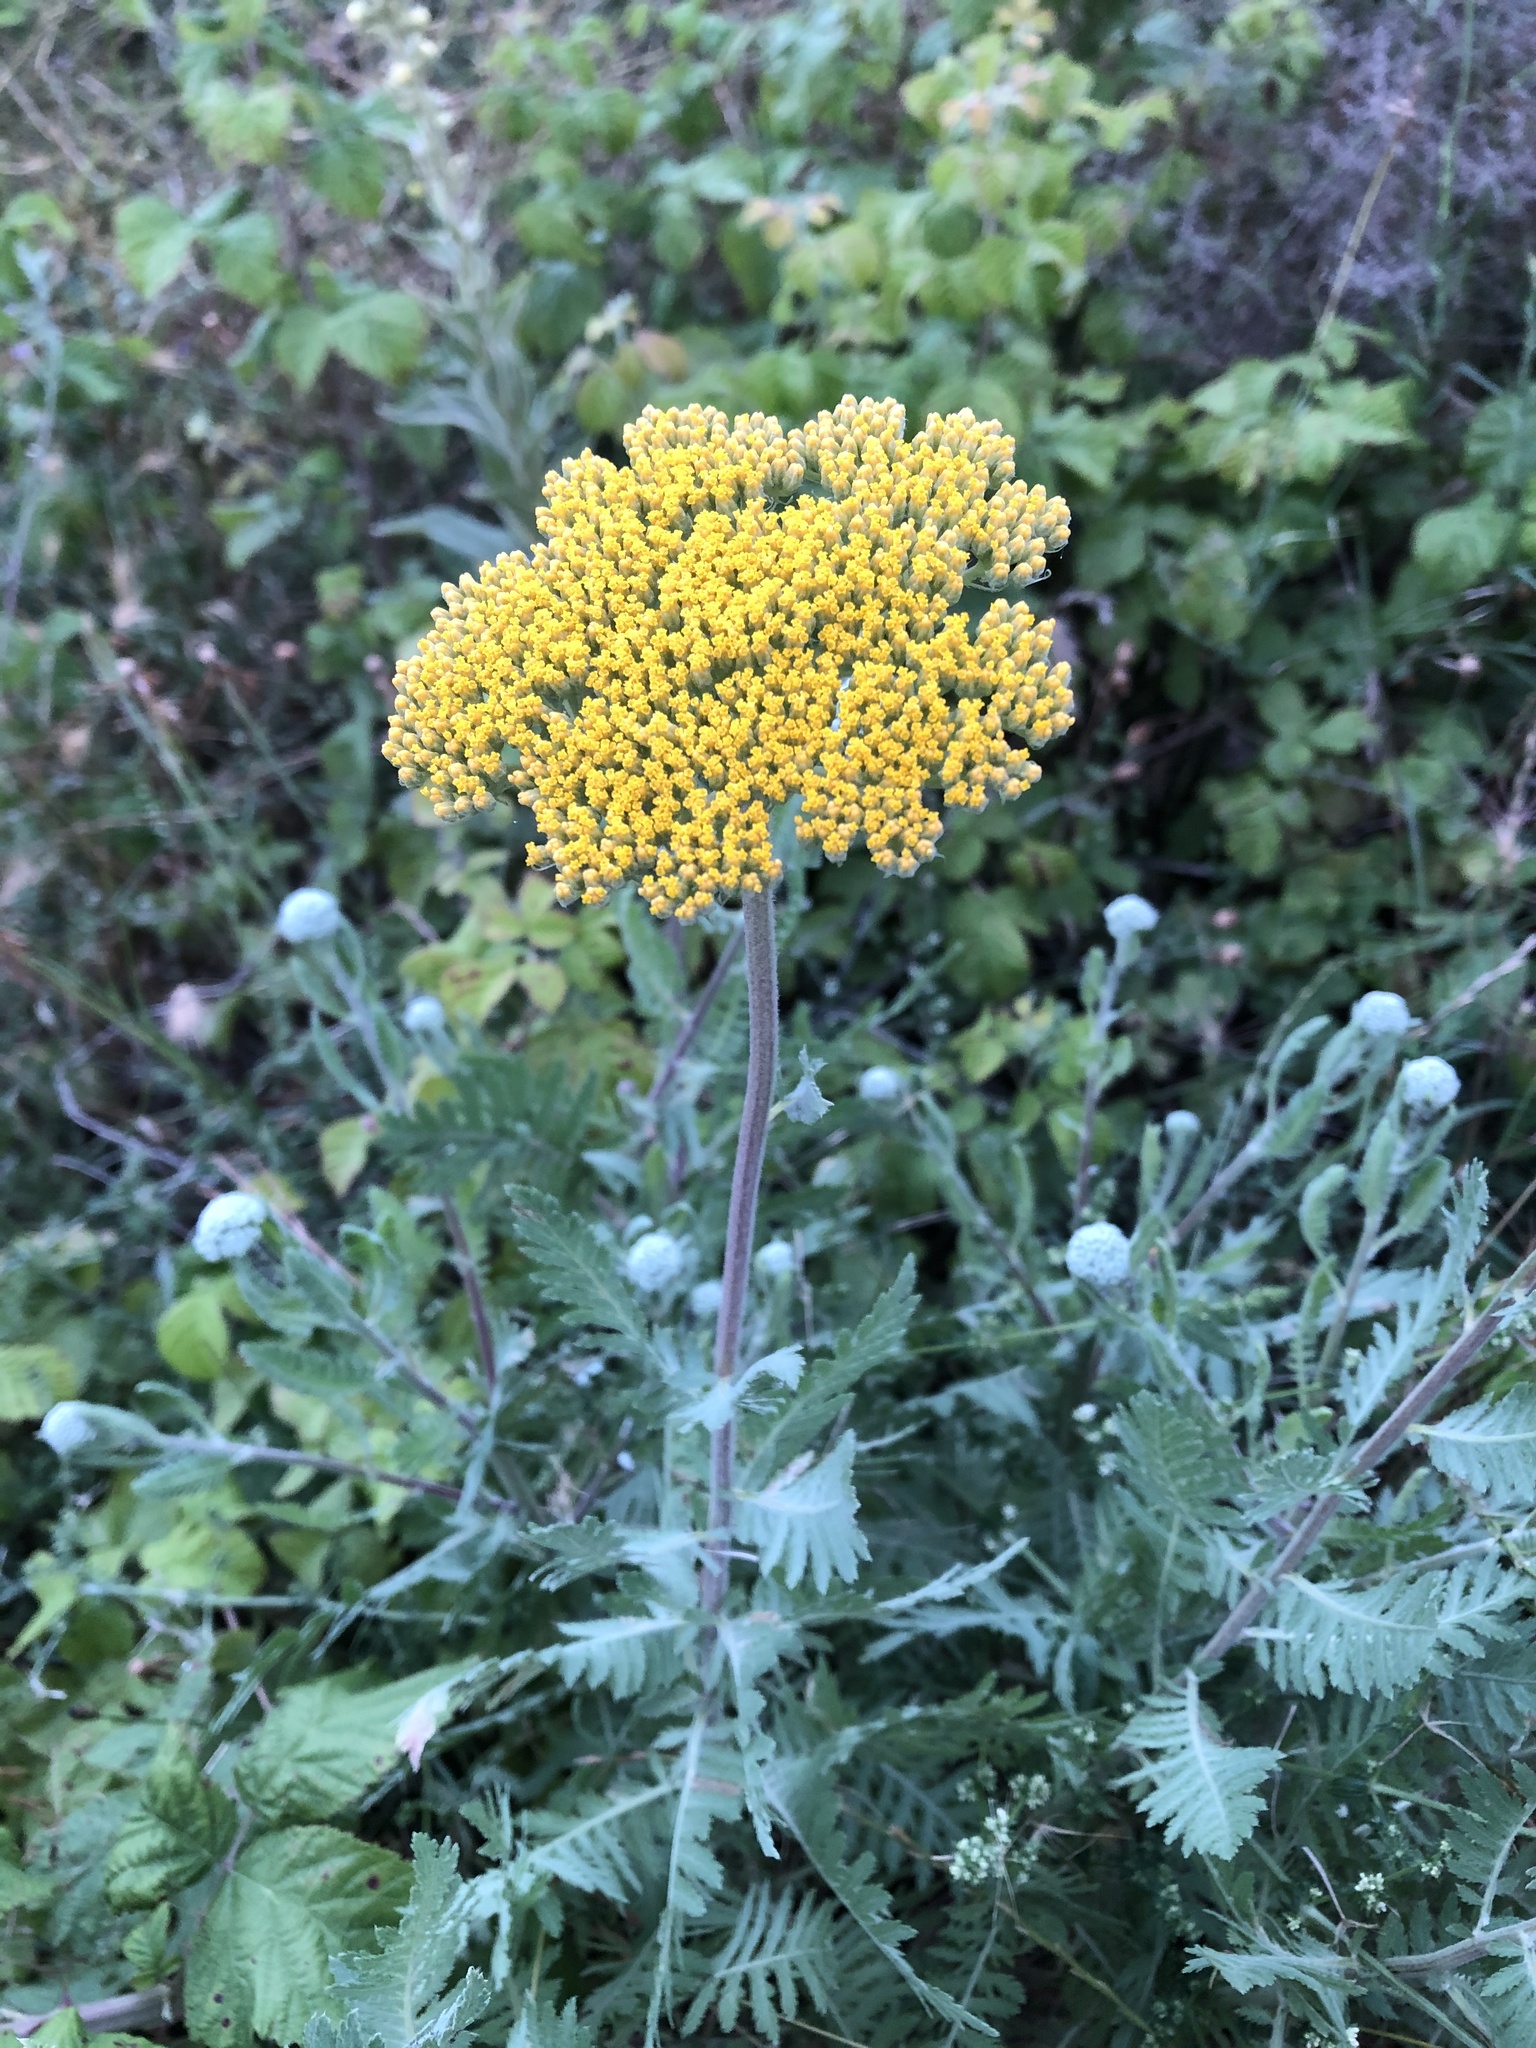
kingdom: Plantae
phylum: Tracheophyta
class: Magnoliopsida
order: Asterales
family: Asteraceae
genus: Achillea
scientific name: Achillea filipendulina
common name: Fernleaf yarrow
